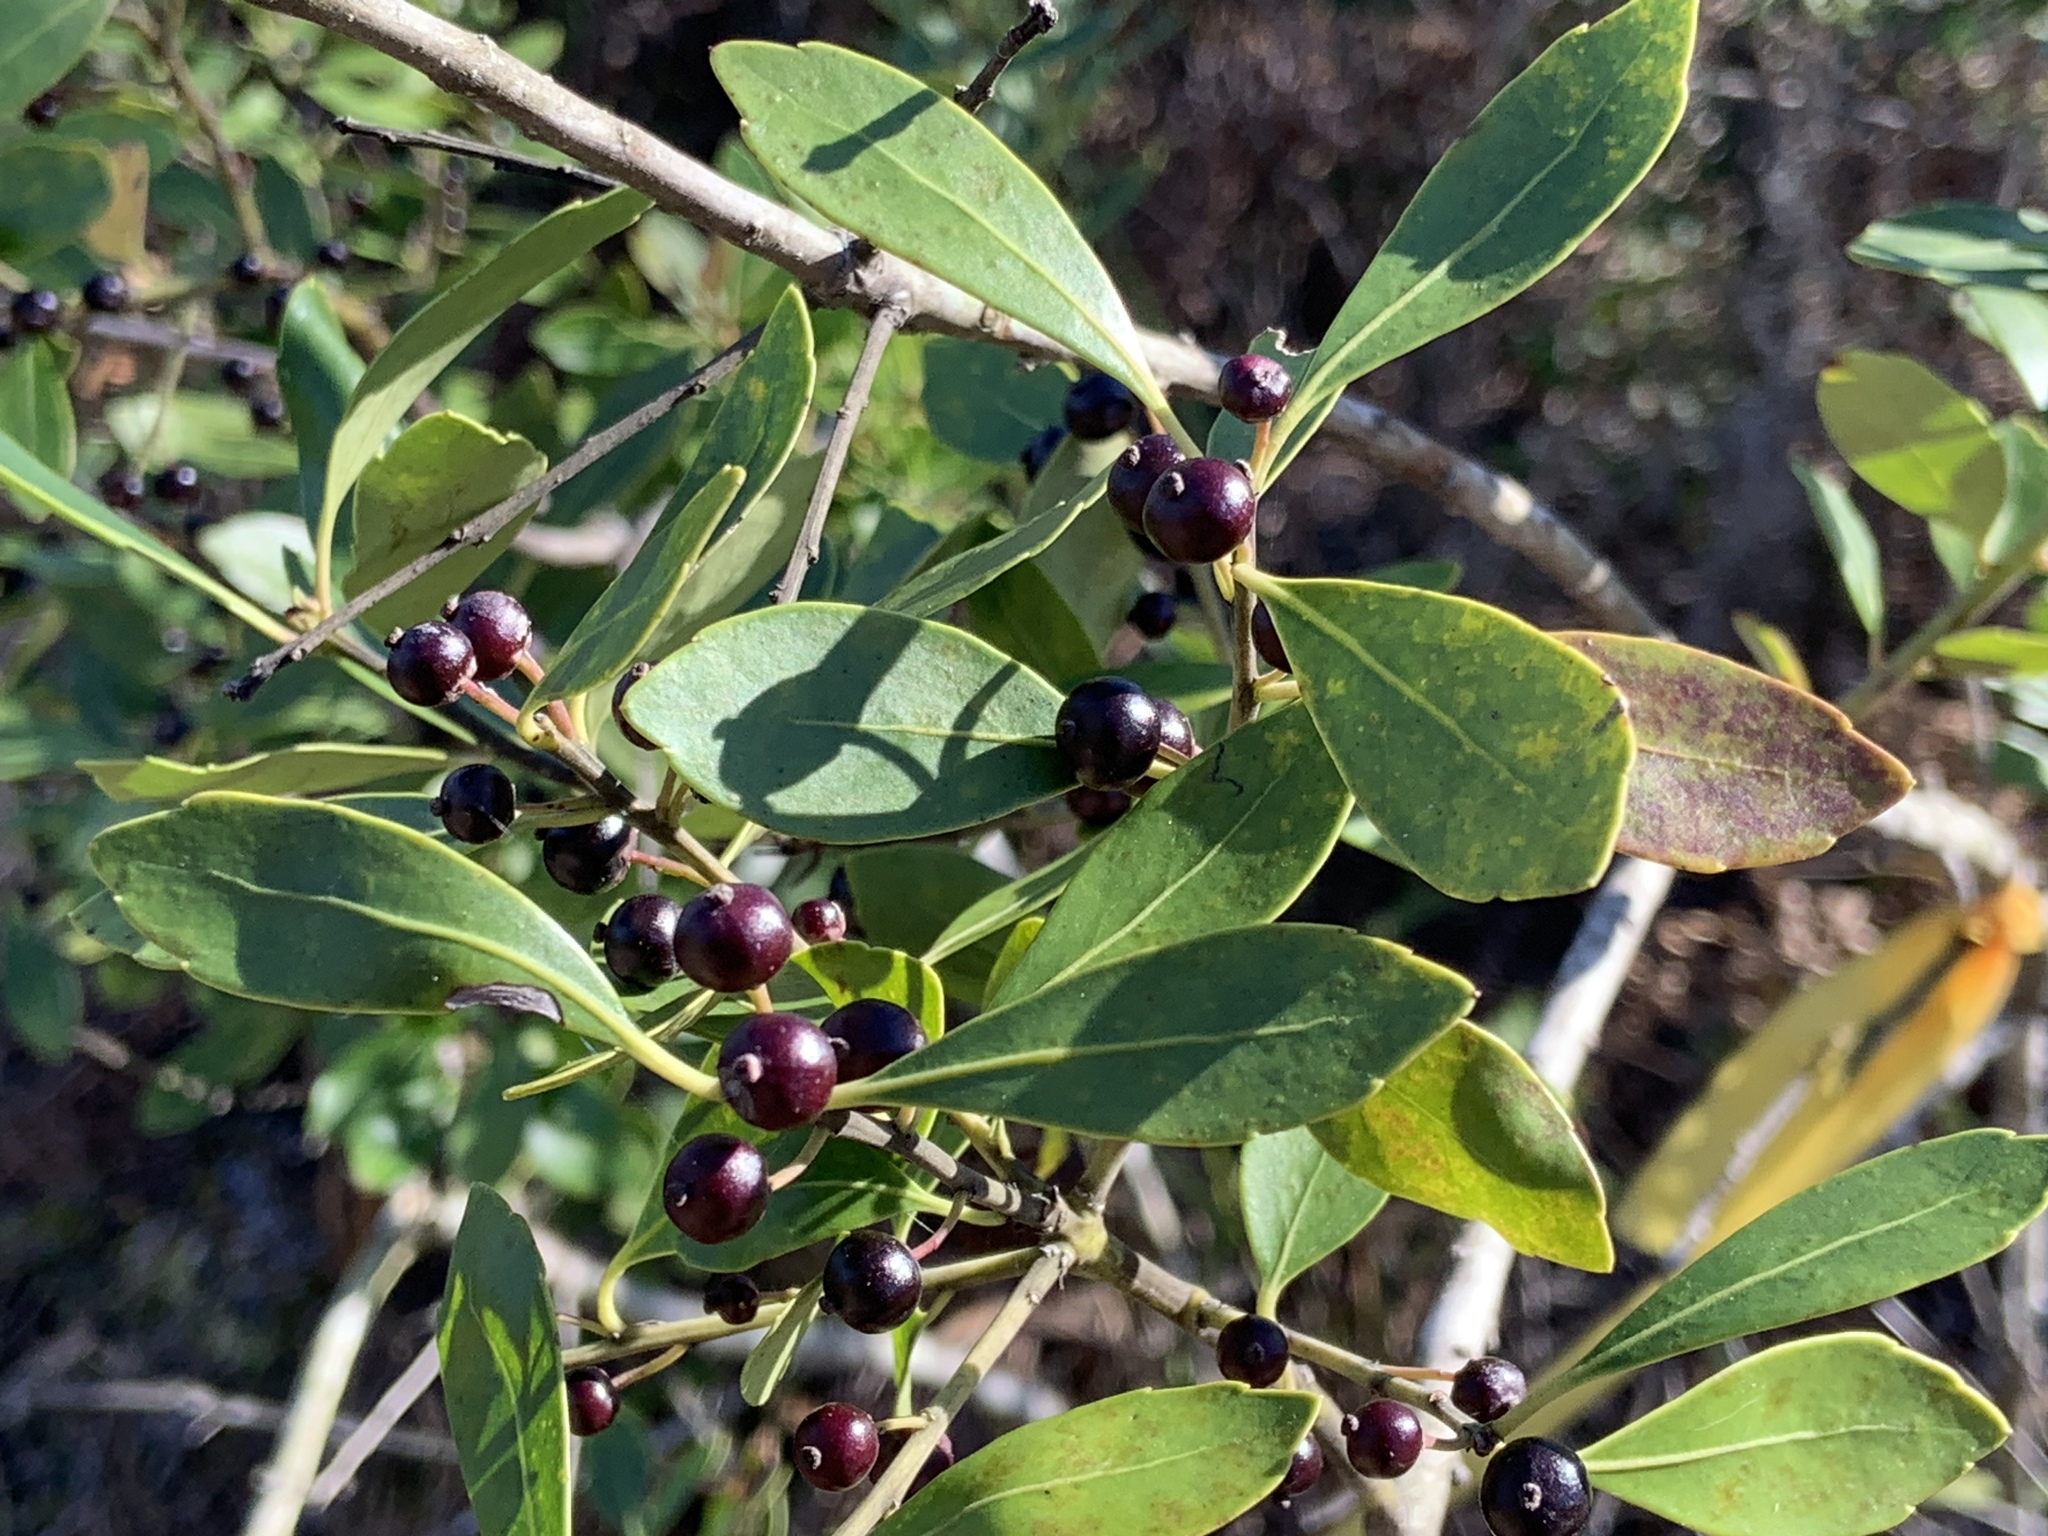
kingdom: Plantae
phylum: Tracheophyta
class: Magnoliopsida
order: Aquifoliales
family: Aquifoliaceae
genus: Ilex
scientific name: Ilex glabra
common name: Bitter gallberry
